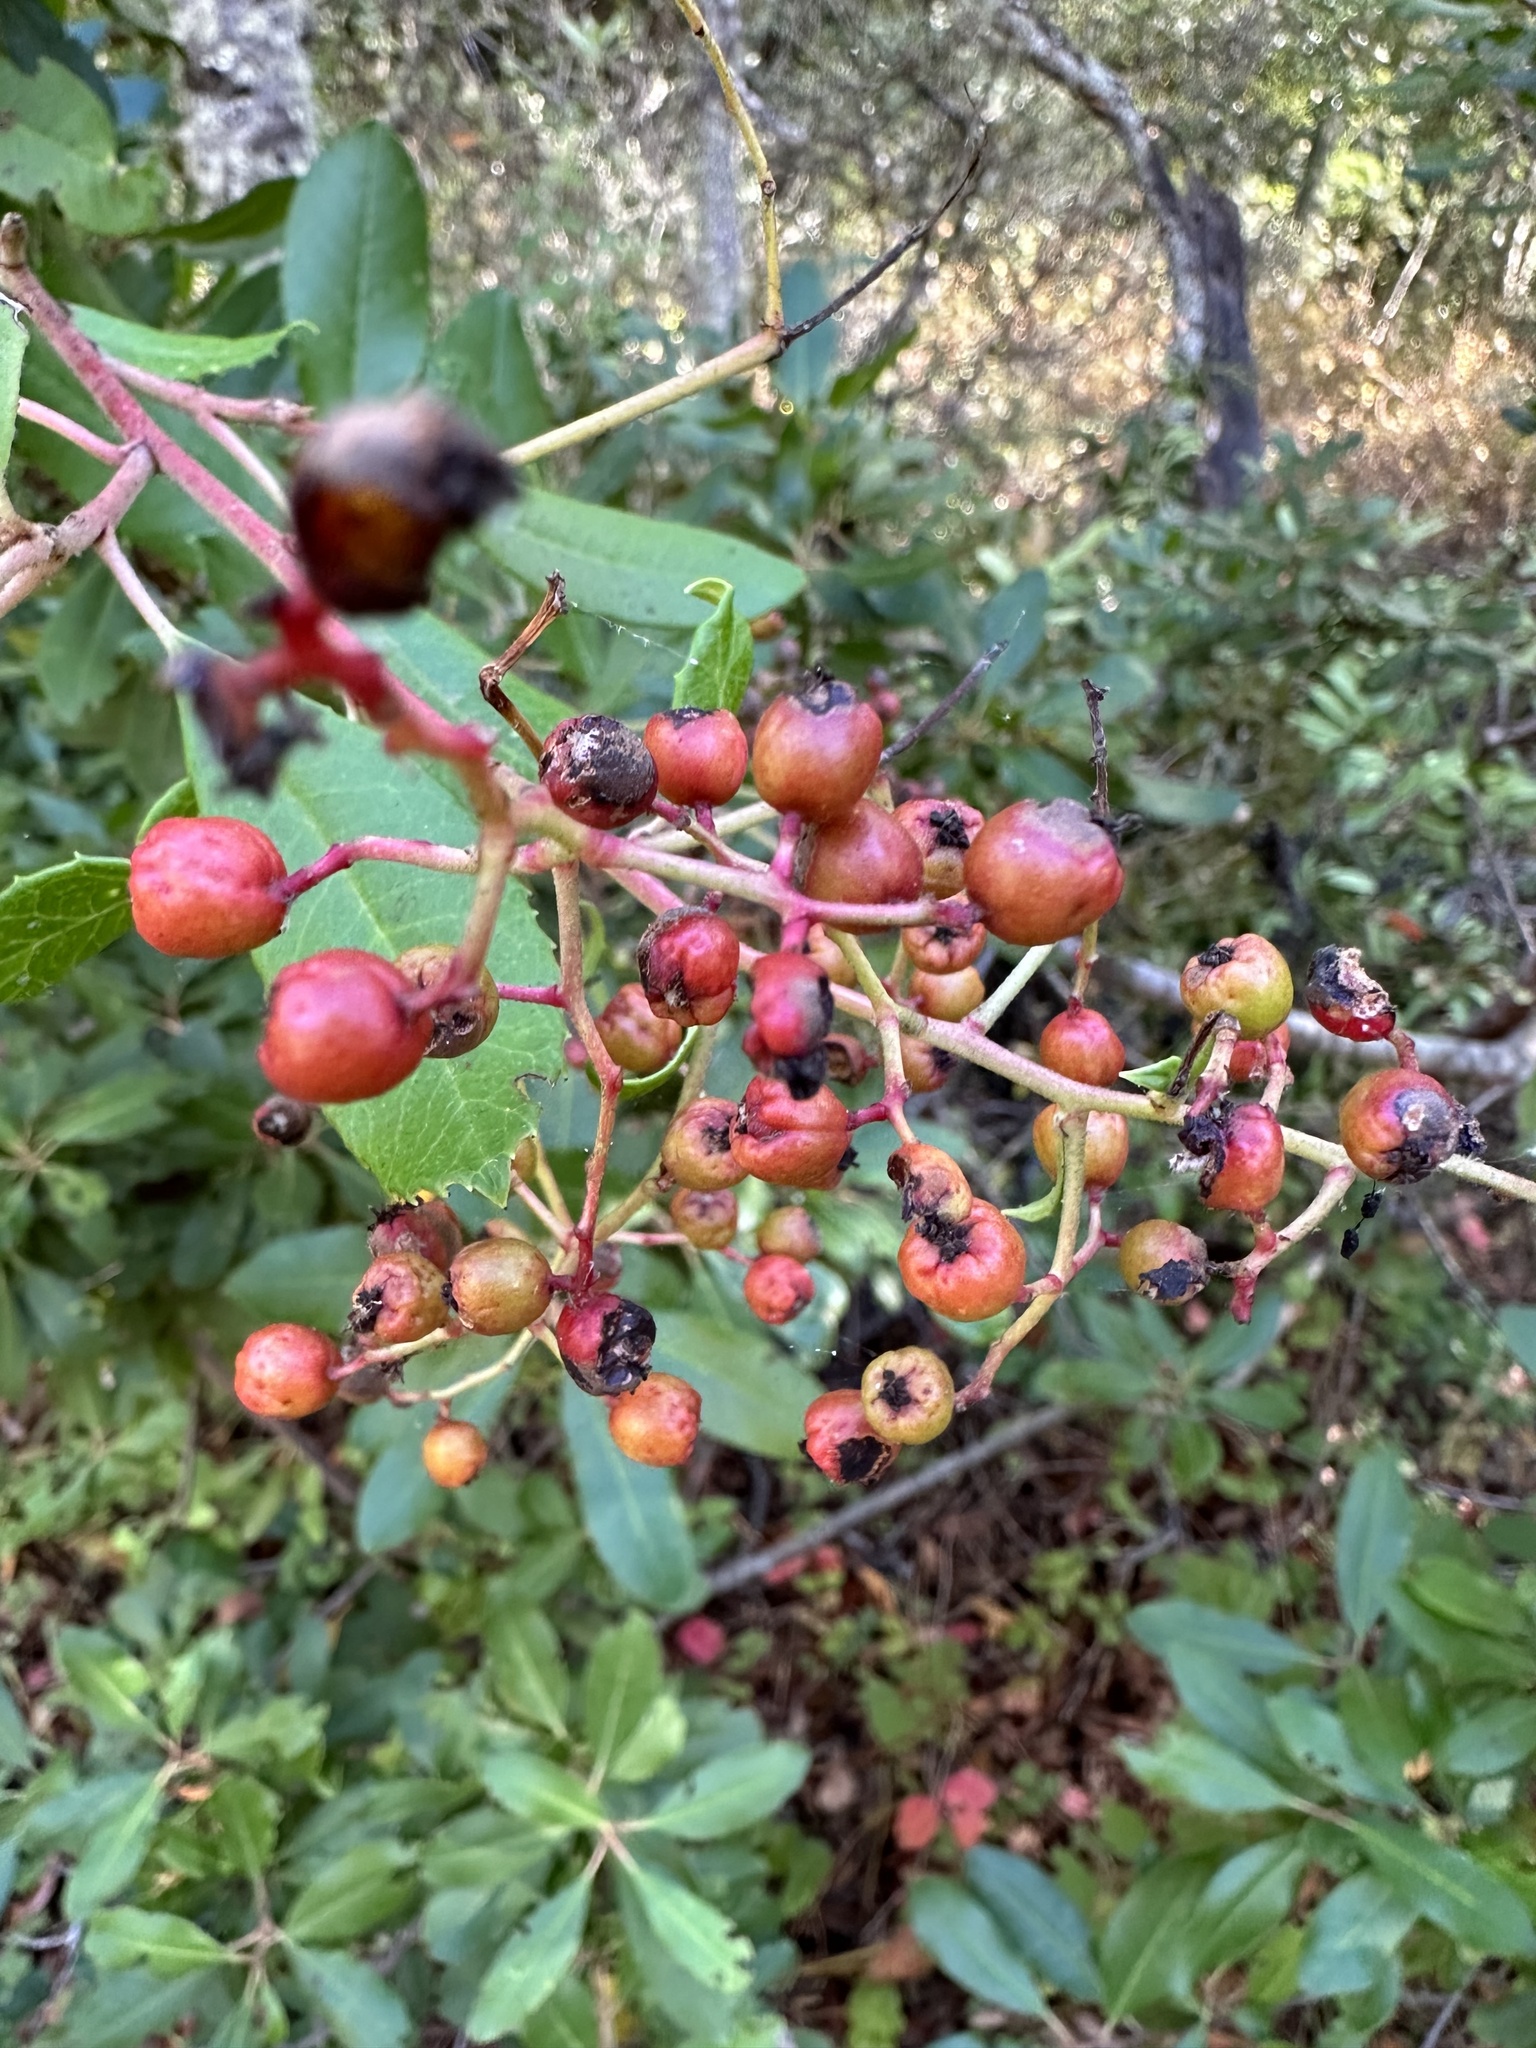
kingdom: Plantae
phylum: Tracheophyta
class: Magnoliopsida
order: Rosales
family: Rosaceae
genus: Heteromeles
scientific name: Heteromeles arbutifolia
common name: California-holly
